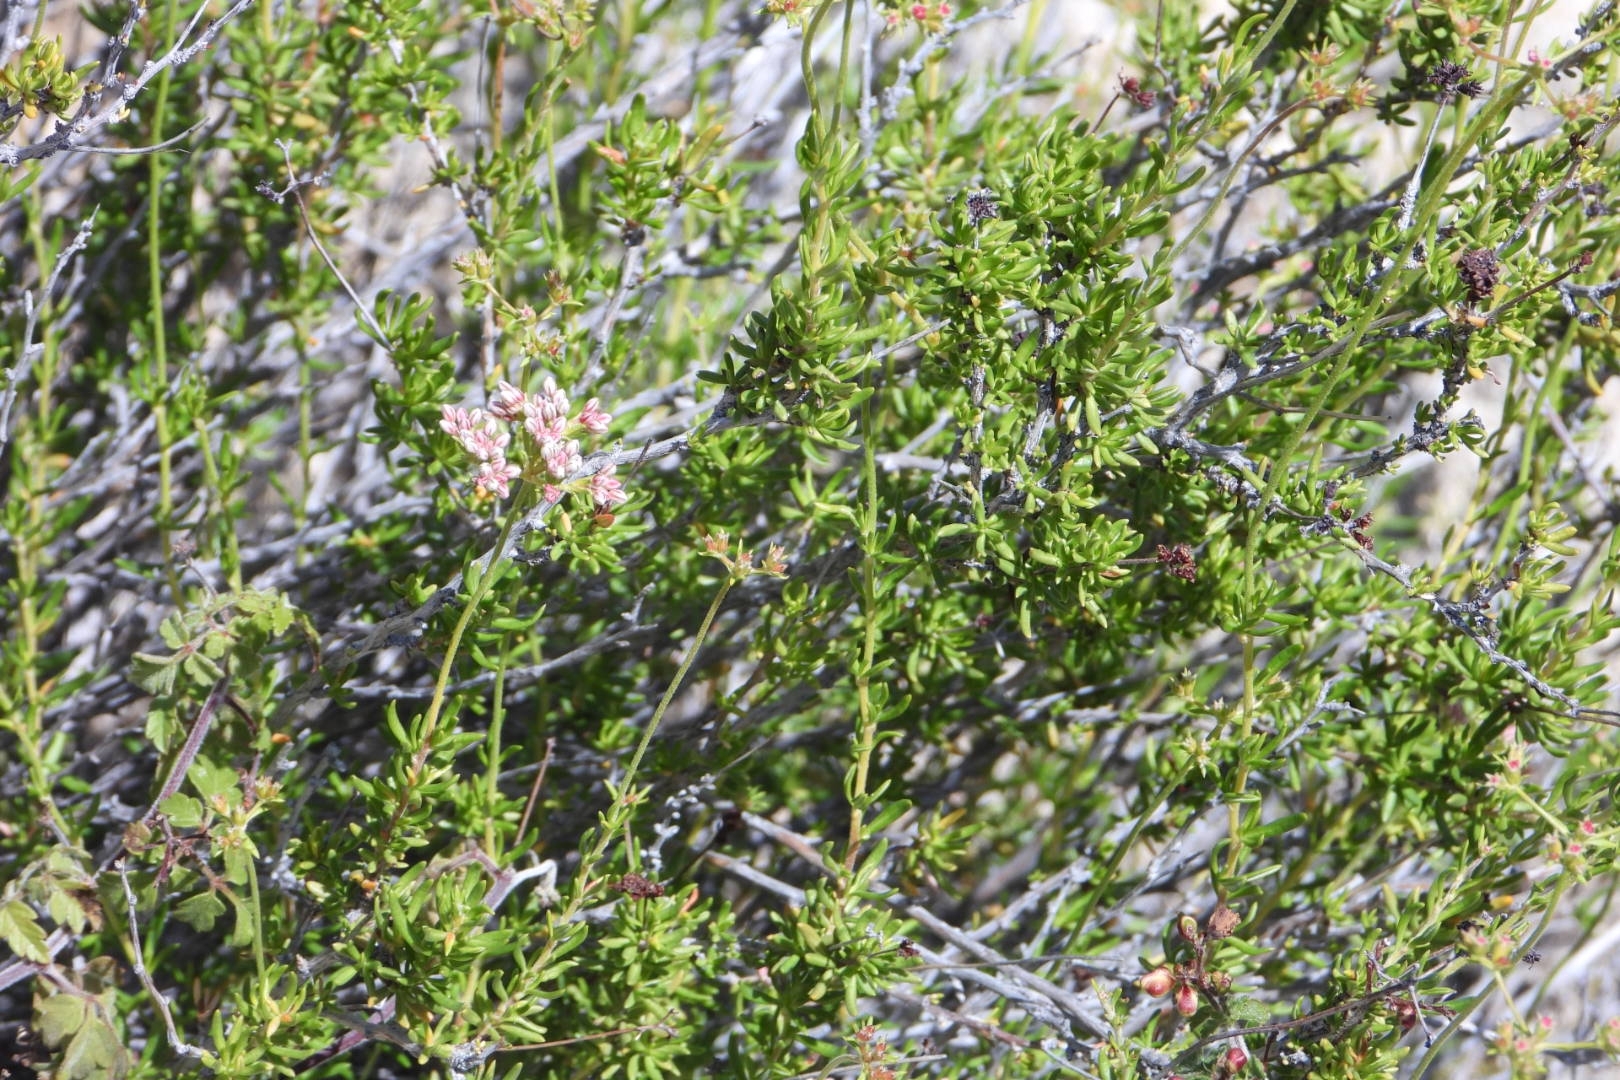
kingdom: Plantae
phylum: Tracheophyta
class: Magnoliopsida
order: Caryophyllales
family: Polygonaceae
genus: Eriogonum
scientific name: Eriogonum fasciculatum
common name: California wild buckwheat
